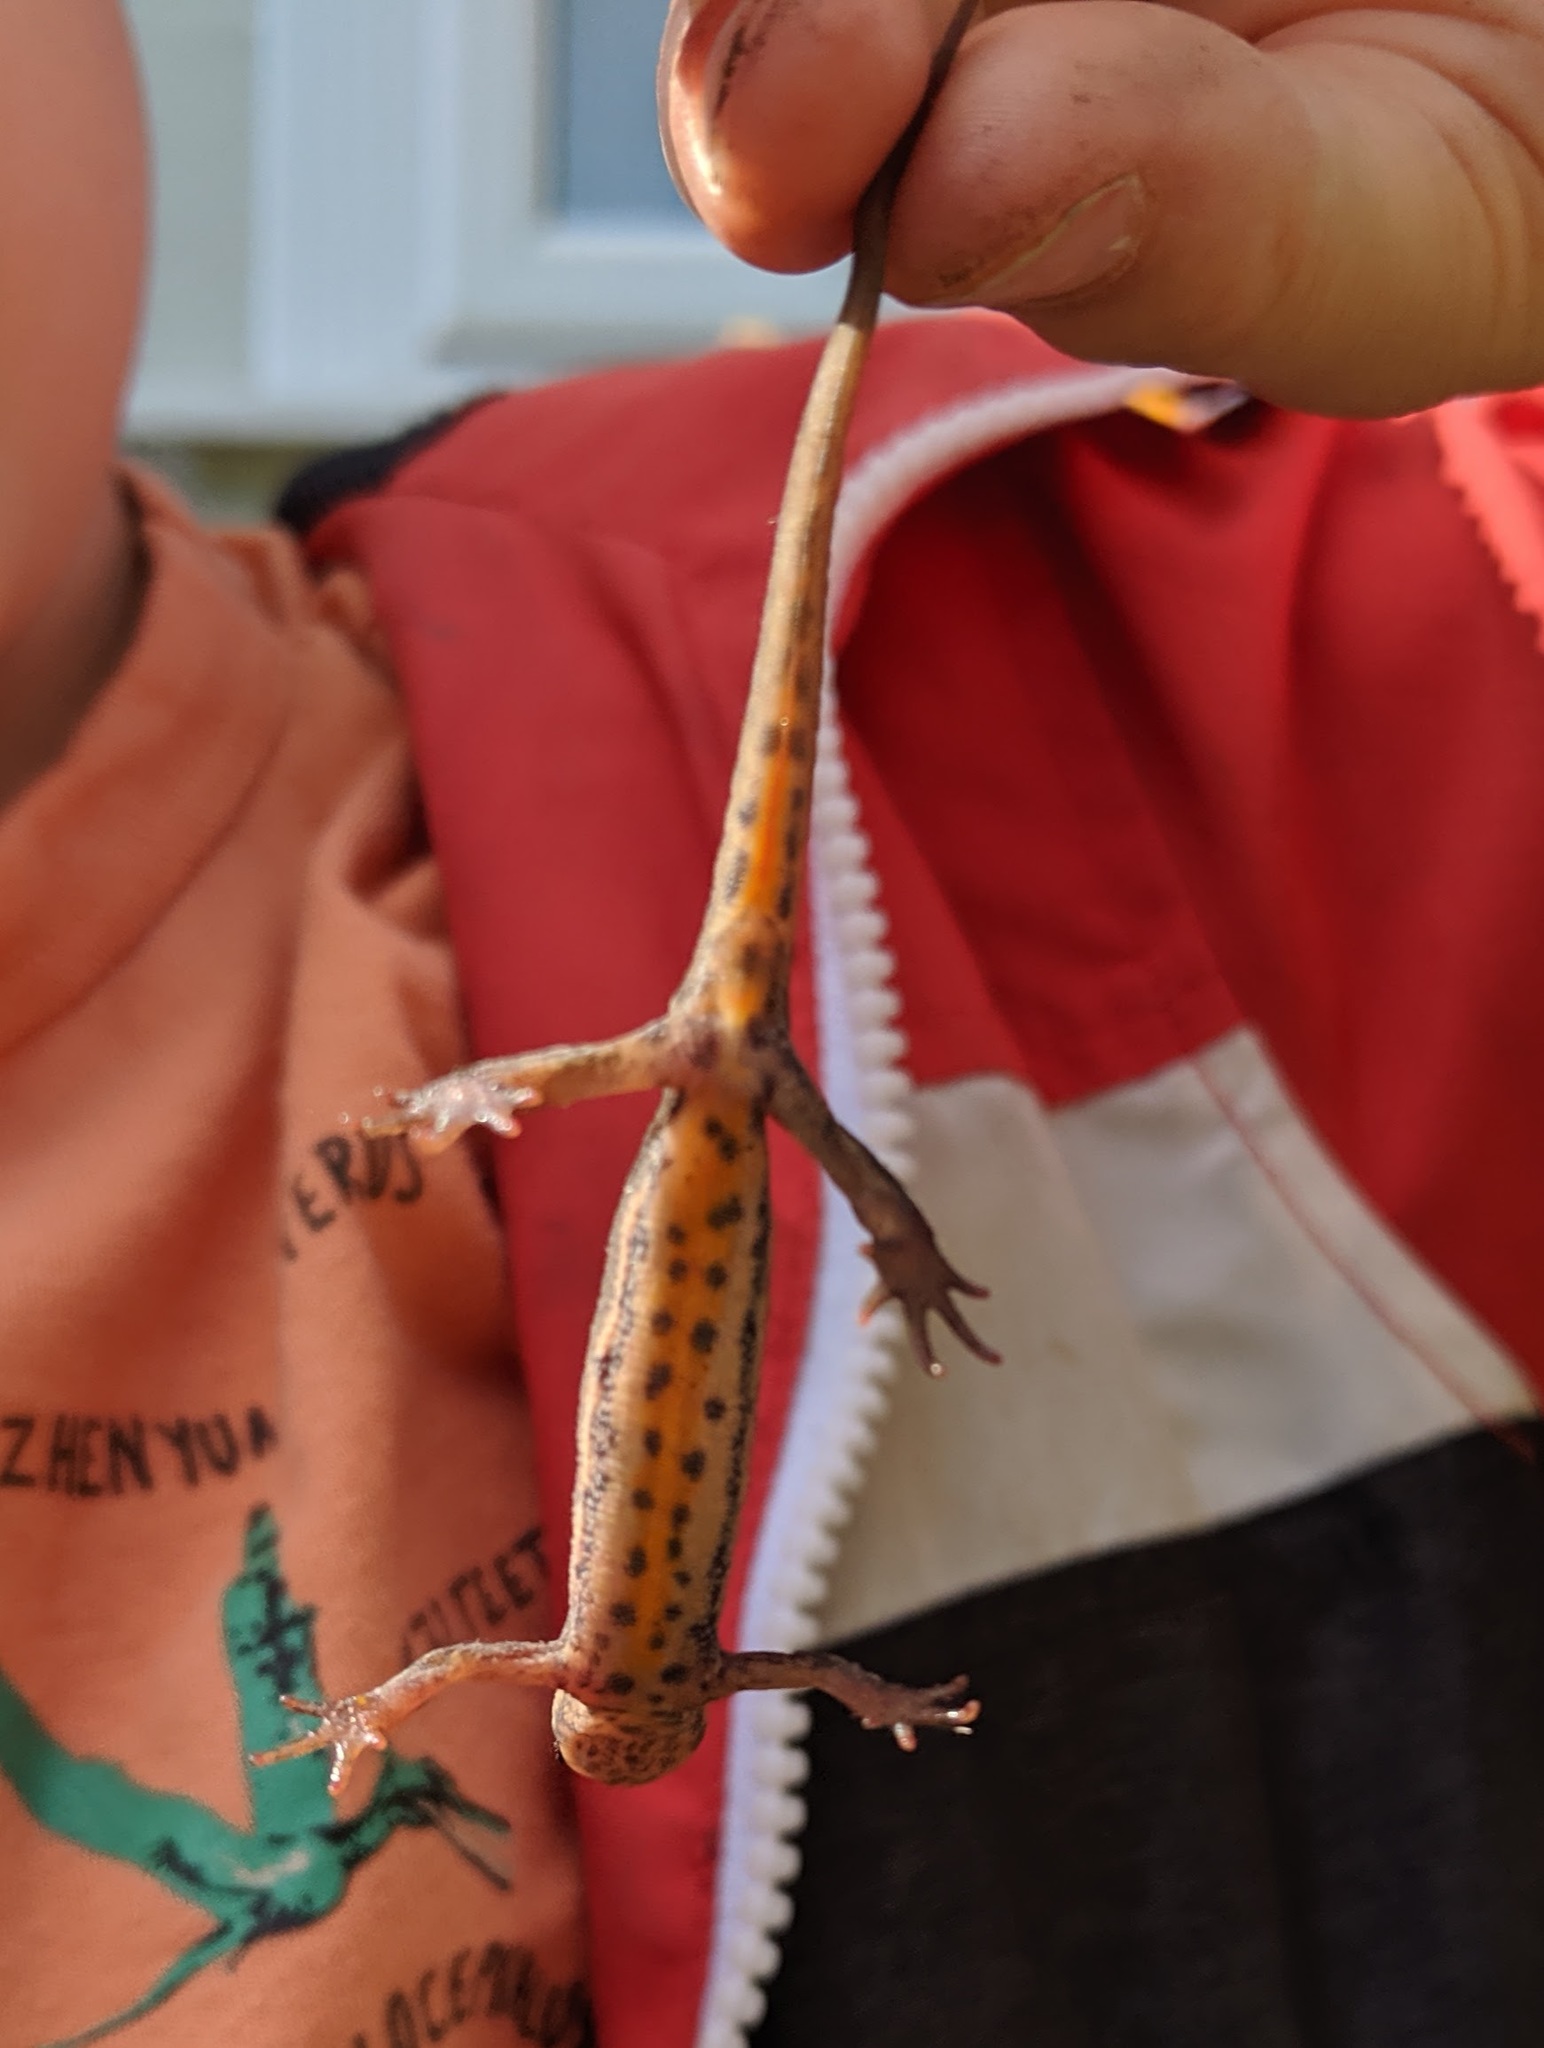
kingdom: Animalia
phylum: Chordata
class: Amphibia
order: Caudata
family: Salamandridae
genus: Lissotriton
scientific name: Lissotriton vulgaris
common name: Smooth newt
